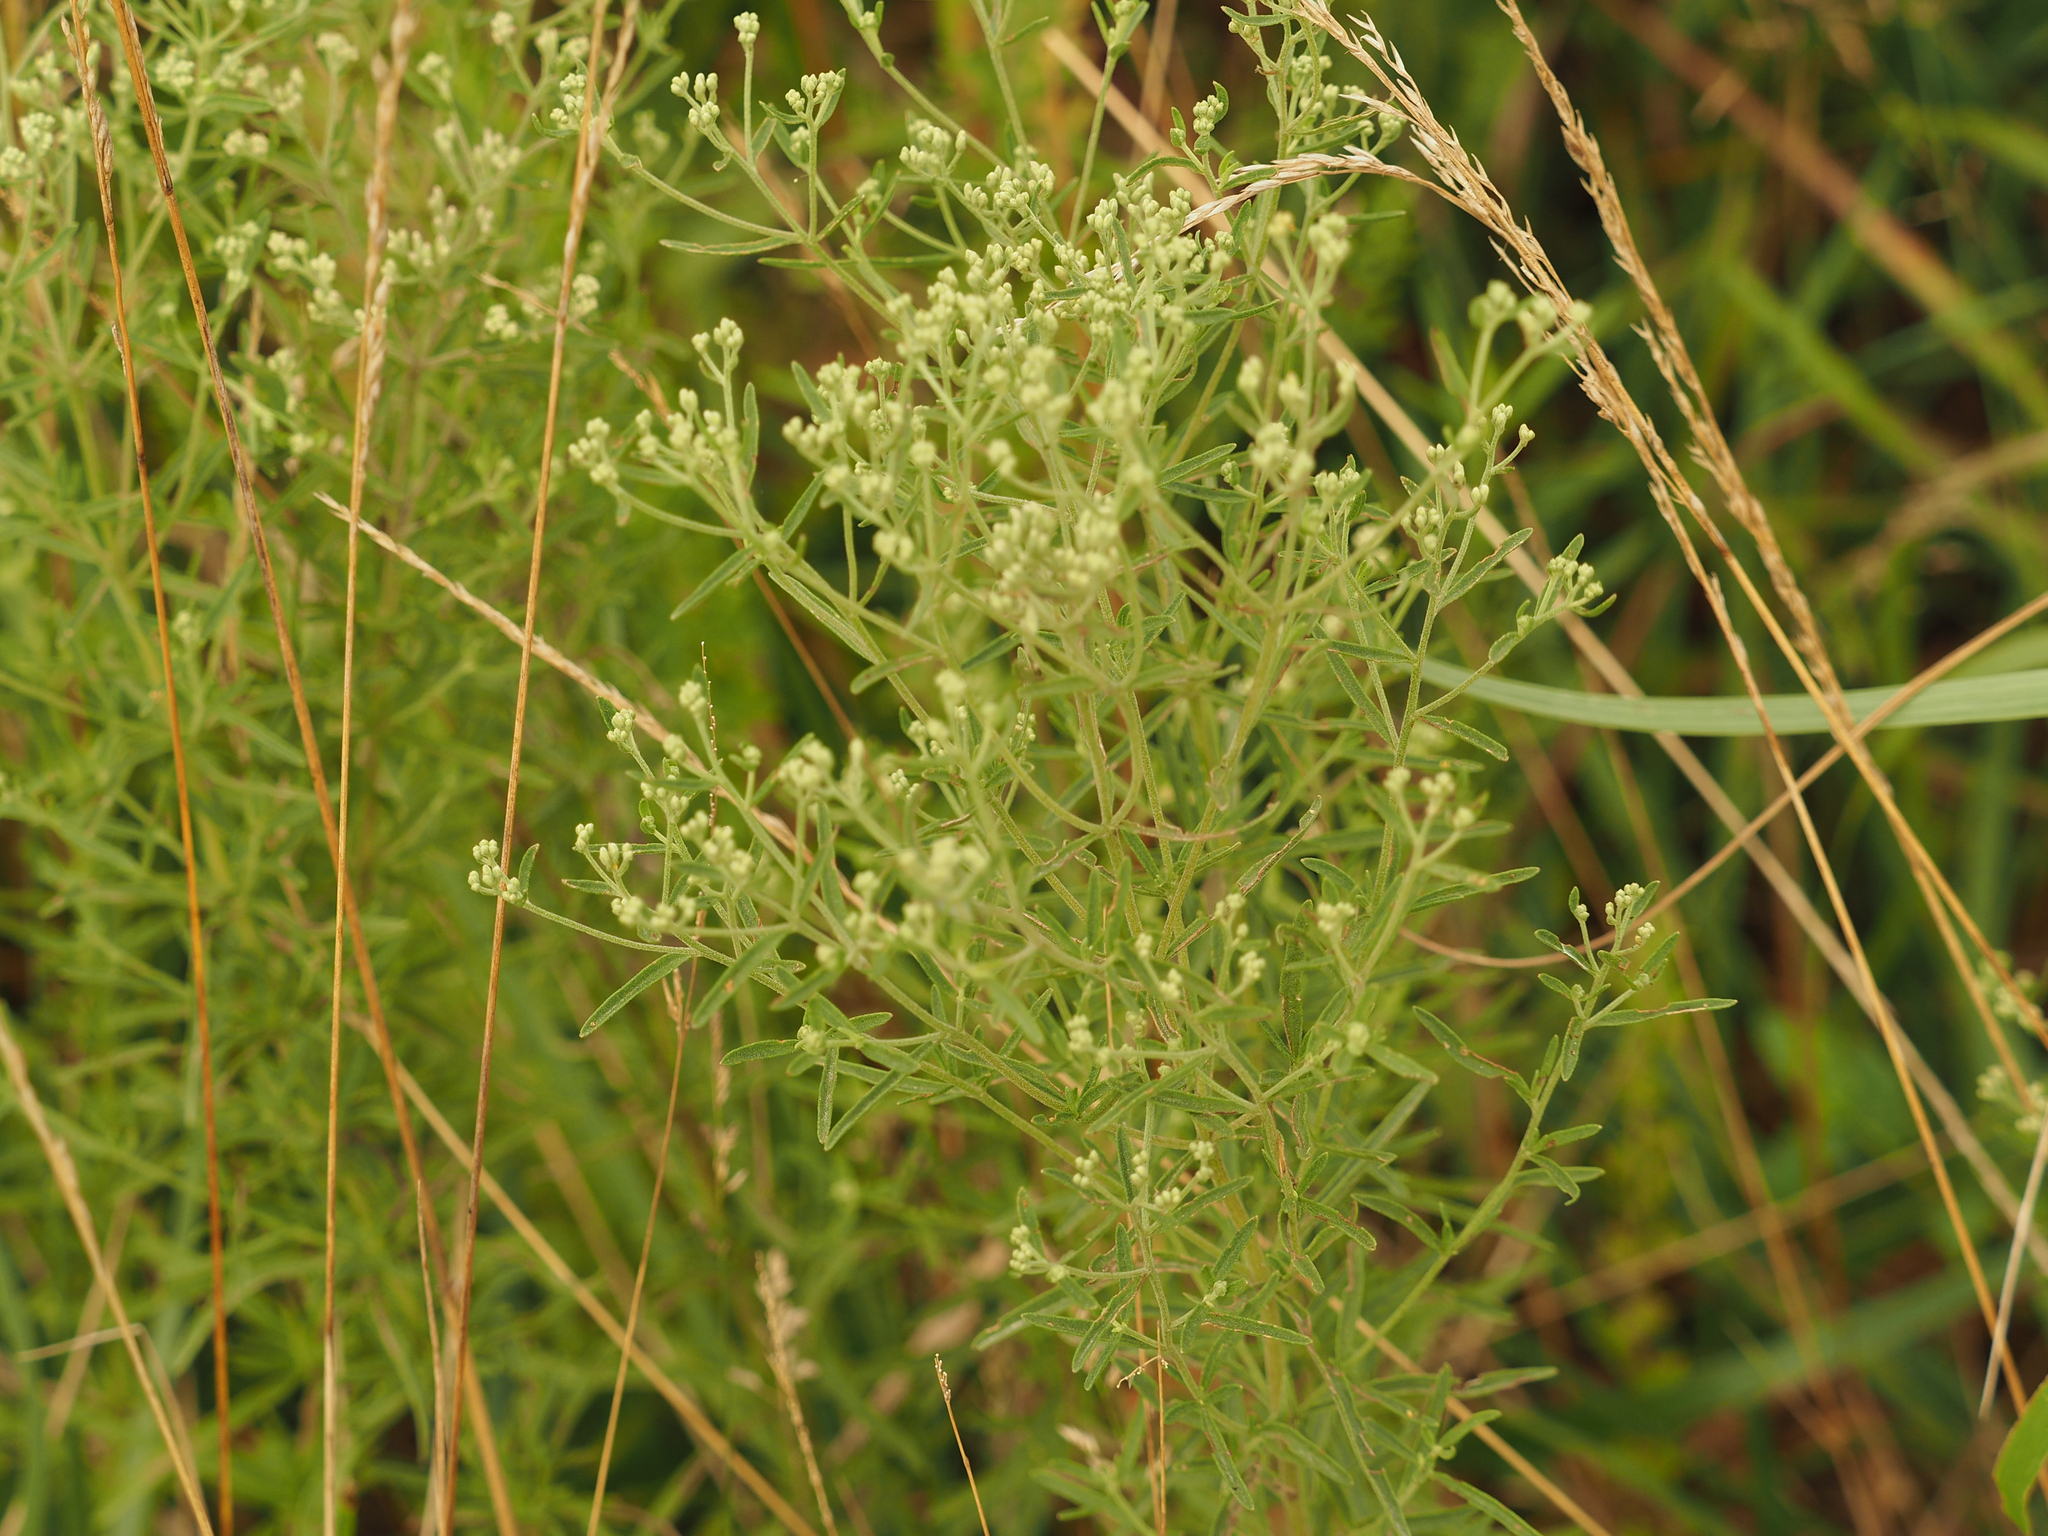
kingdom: Plantae
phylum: Tracheophyta
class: Magnoliopsida
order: Asterales
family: Asteraceae
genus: Eupatorium
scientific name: Eupatorium hyssopifolium
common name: Hyssop-leaf thoroughwort
